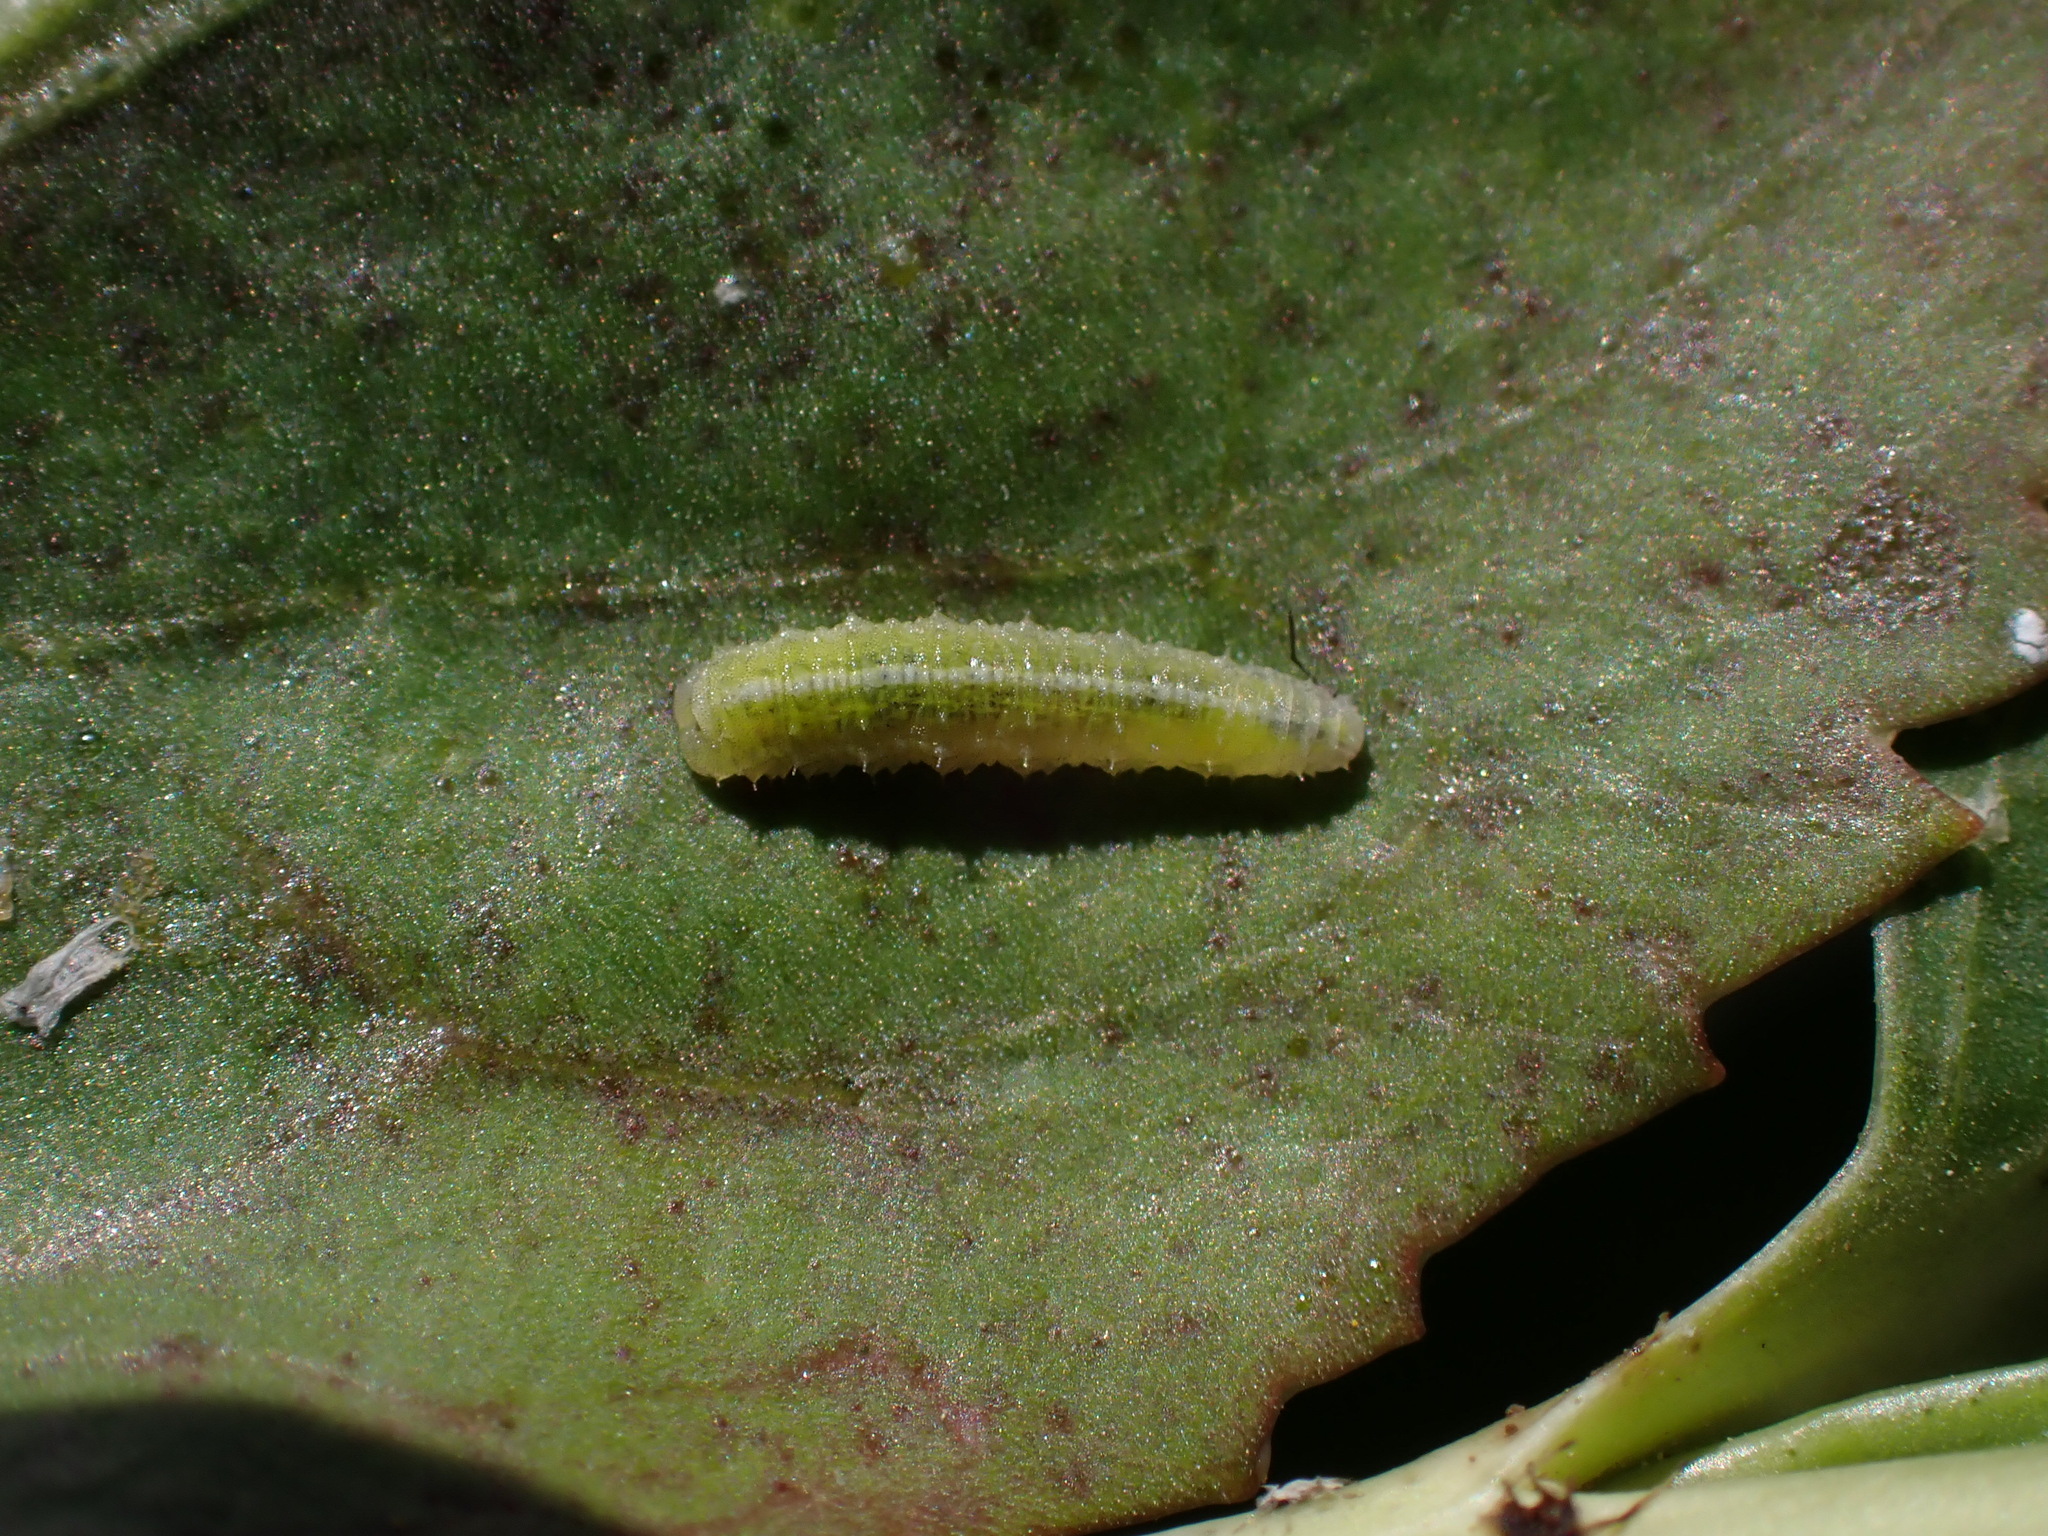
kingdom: Animalia
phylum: Arthropoda
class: Insecta
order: Diptera
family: Syrphidae
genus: Scaeva
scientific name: Scaeva affinis
